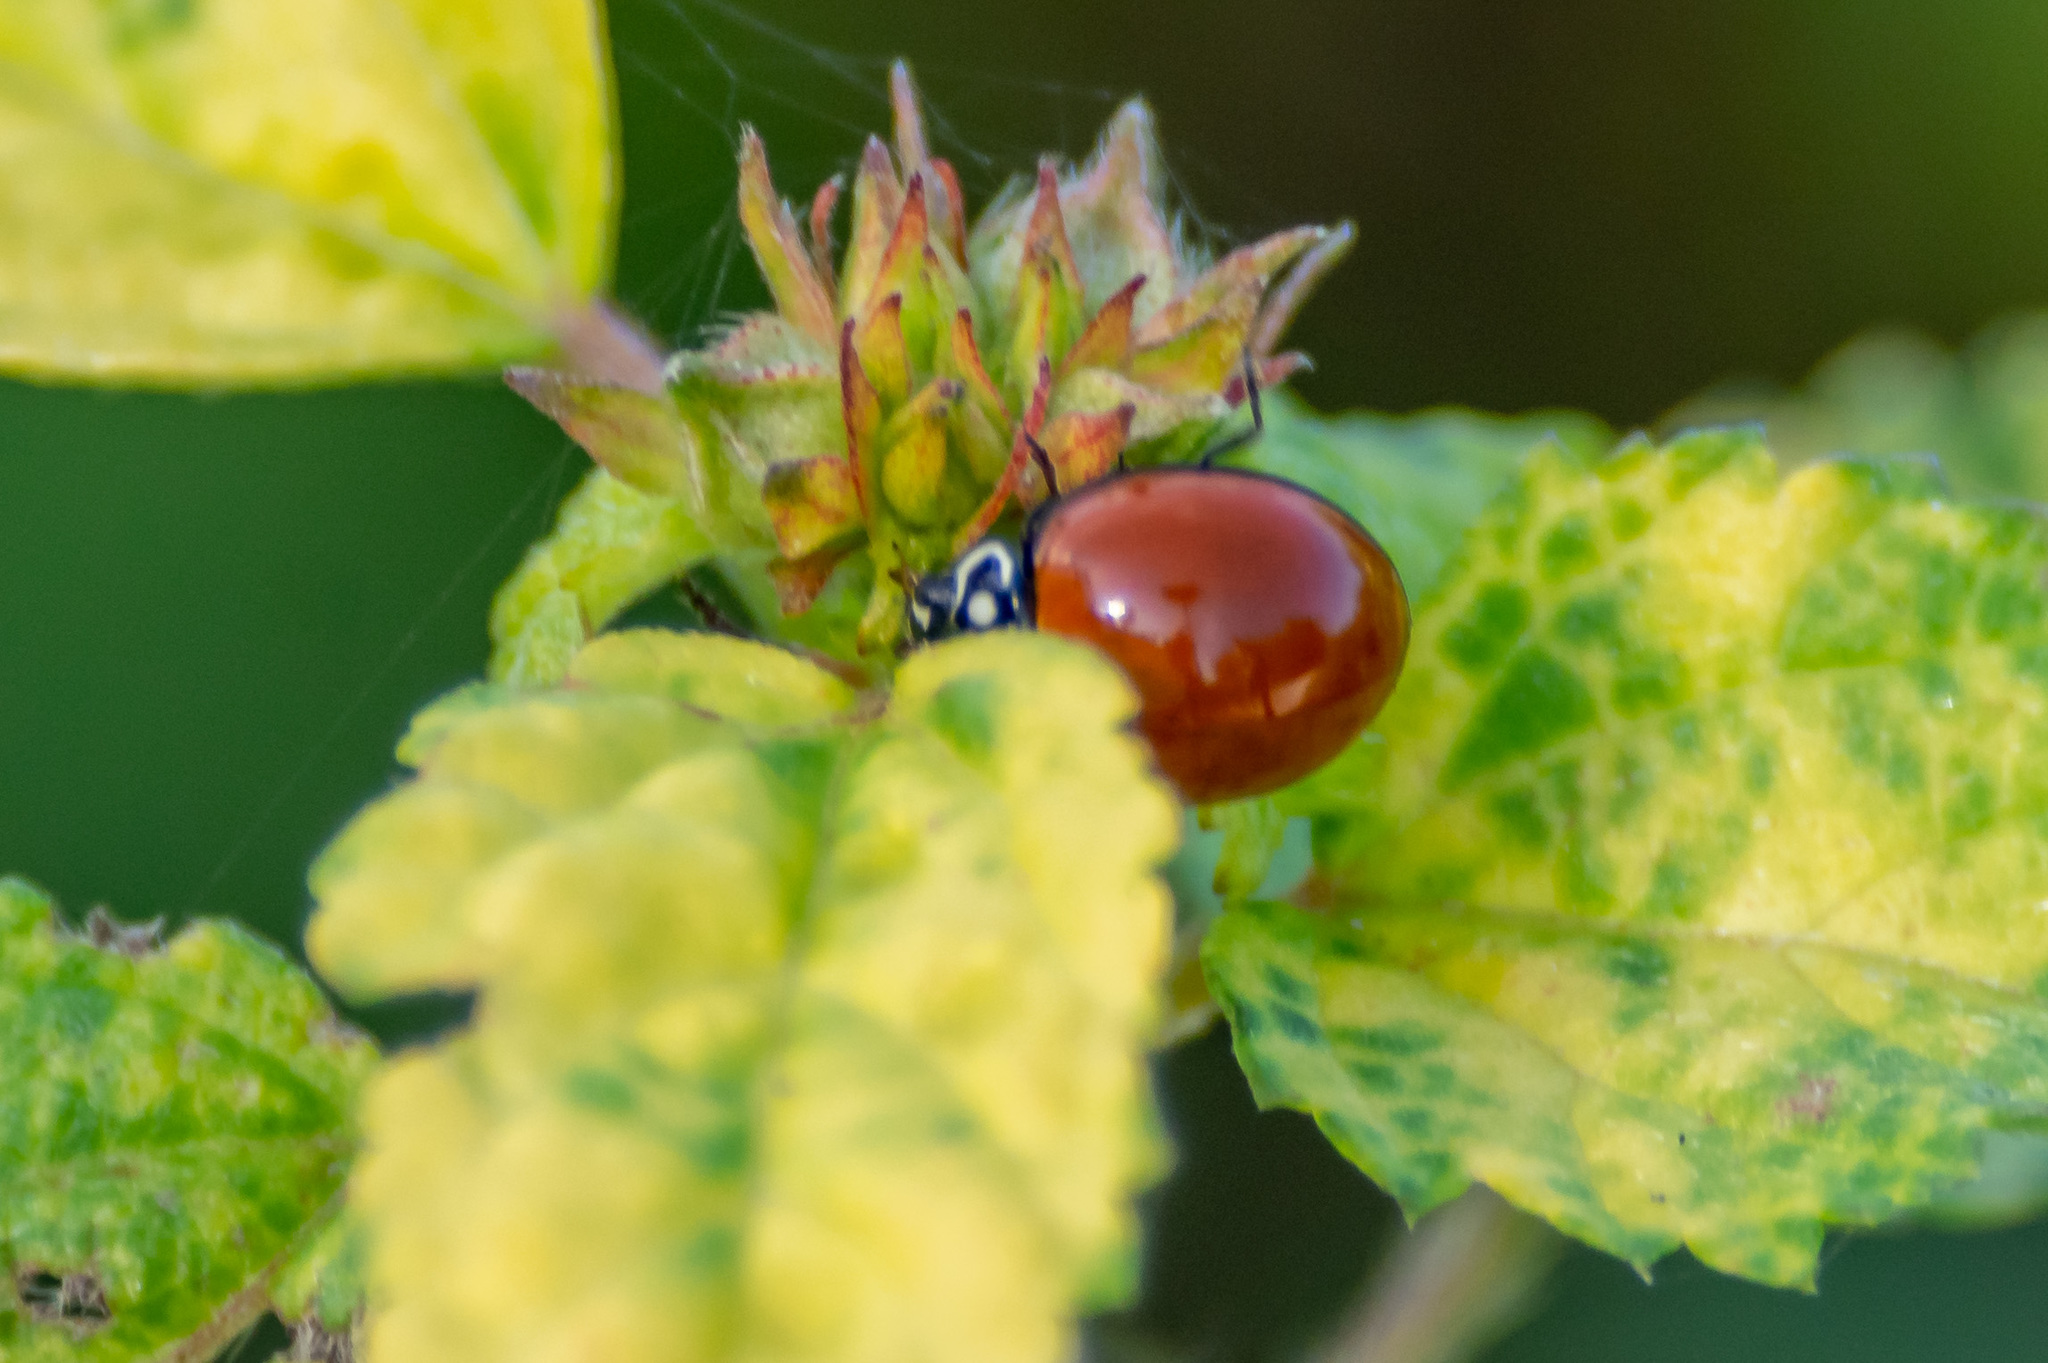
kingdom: Animalia
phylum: Arthropoda
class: Insecta
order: Coleoptera
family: Coccinellidae
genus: Cycloneda
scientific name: Cycloneda sanguinea
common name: Ladybird beetle
